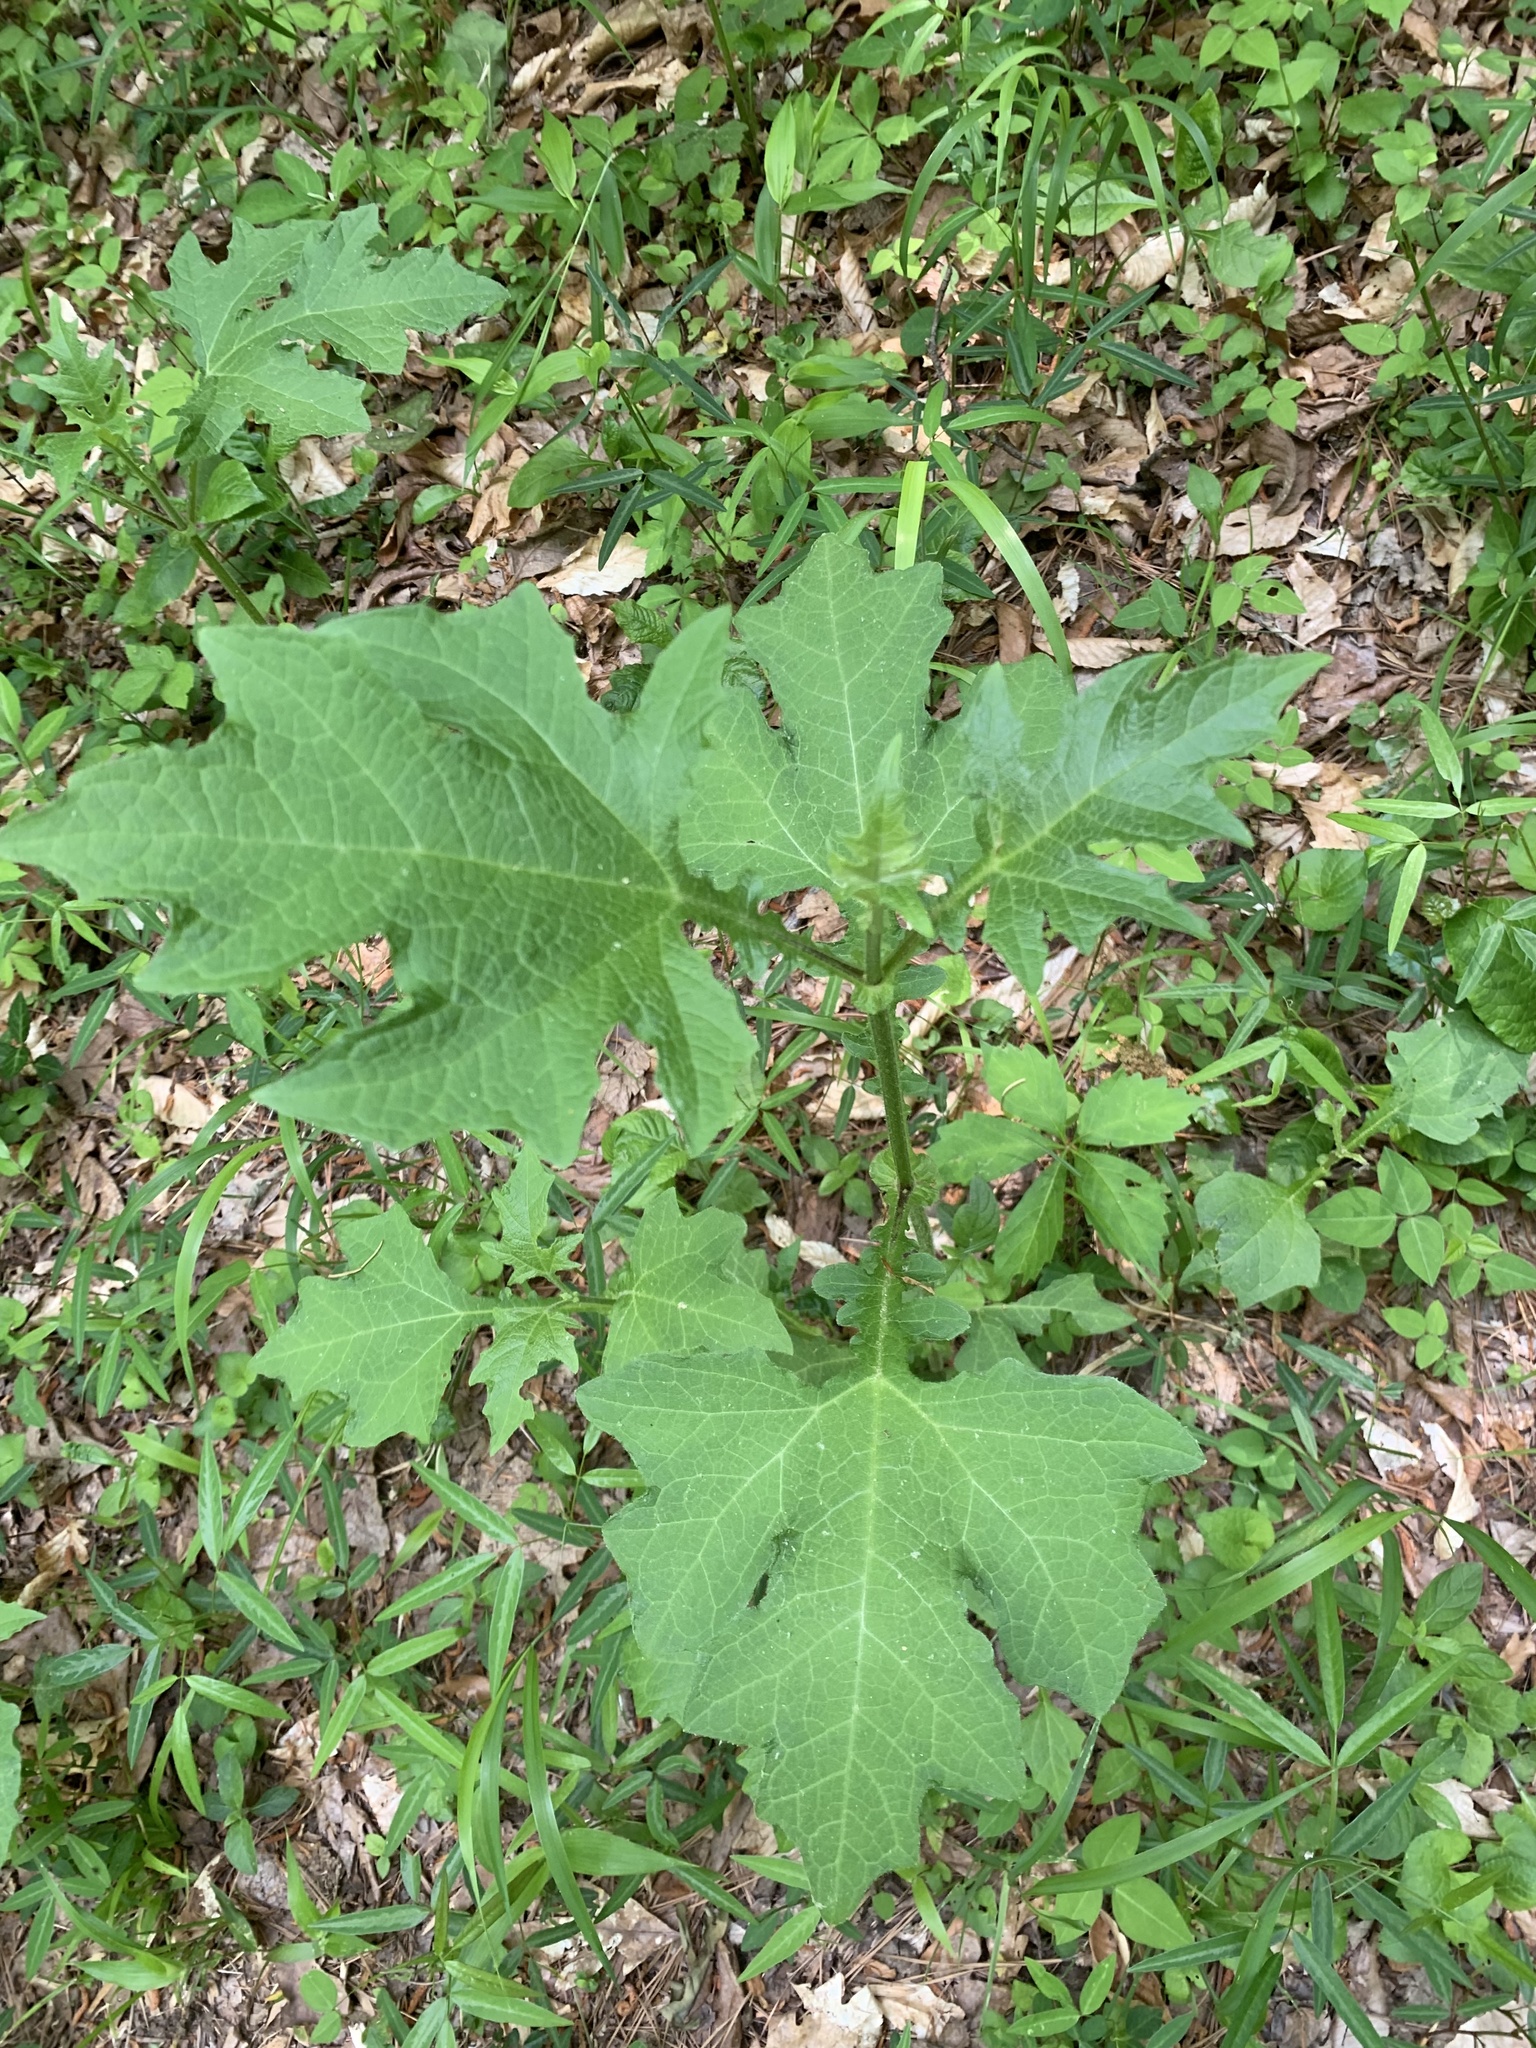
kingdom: Plantae
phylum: Tracheophyta
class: Magnoliopsida
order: Asterales
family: Asteraceae
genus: Smallanthus
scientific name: Smallanthus uvedalia
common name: Bear's-foot
